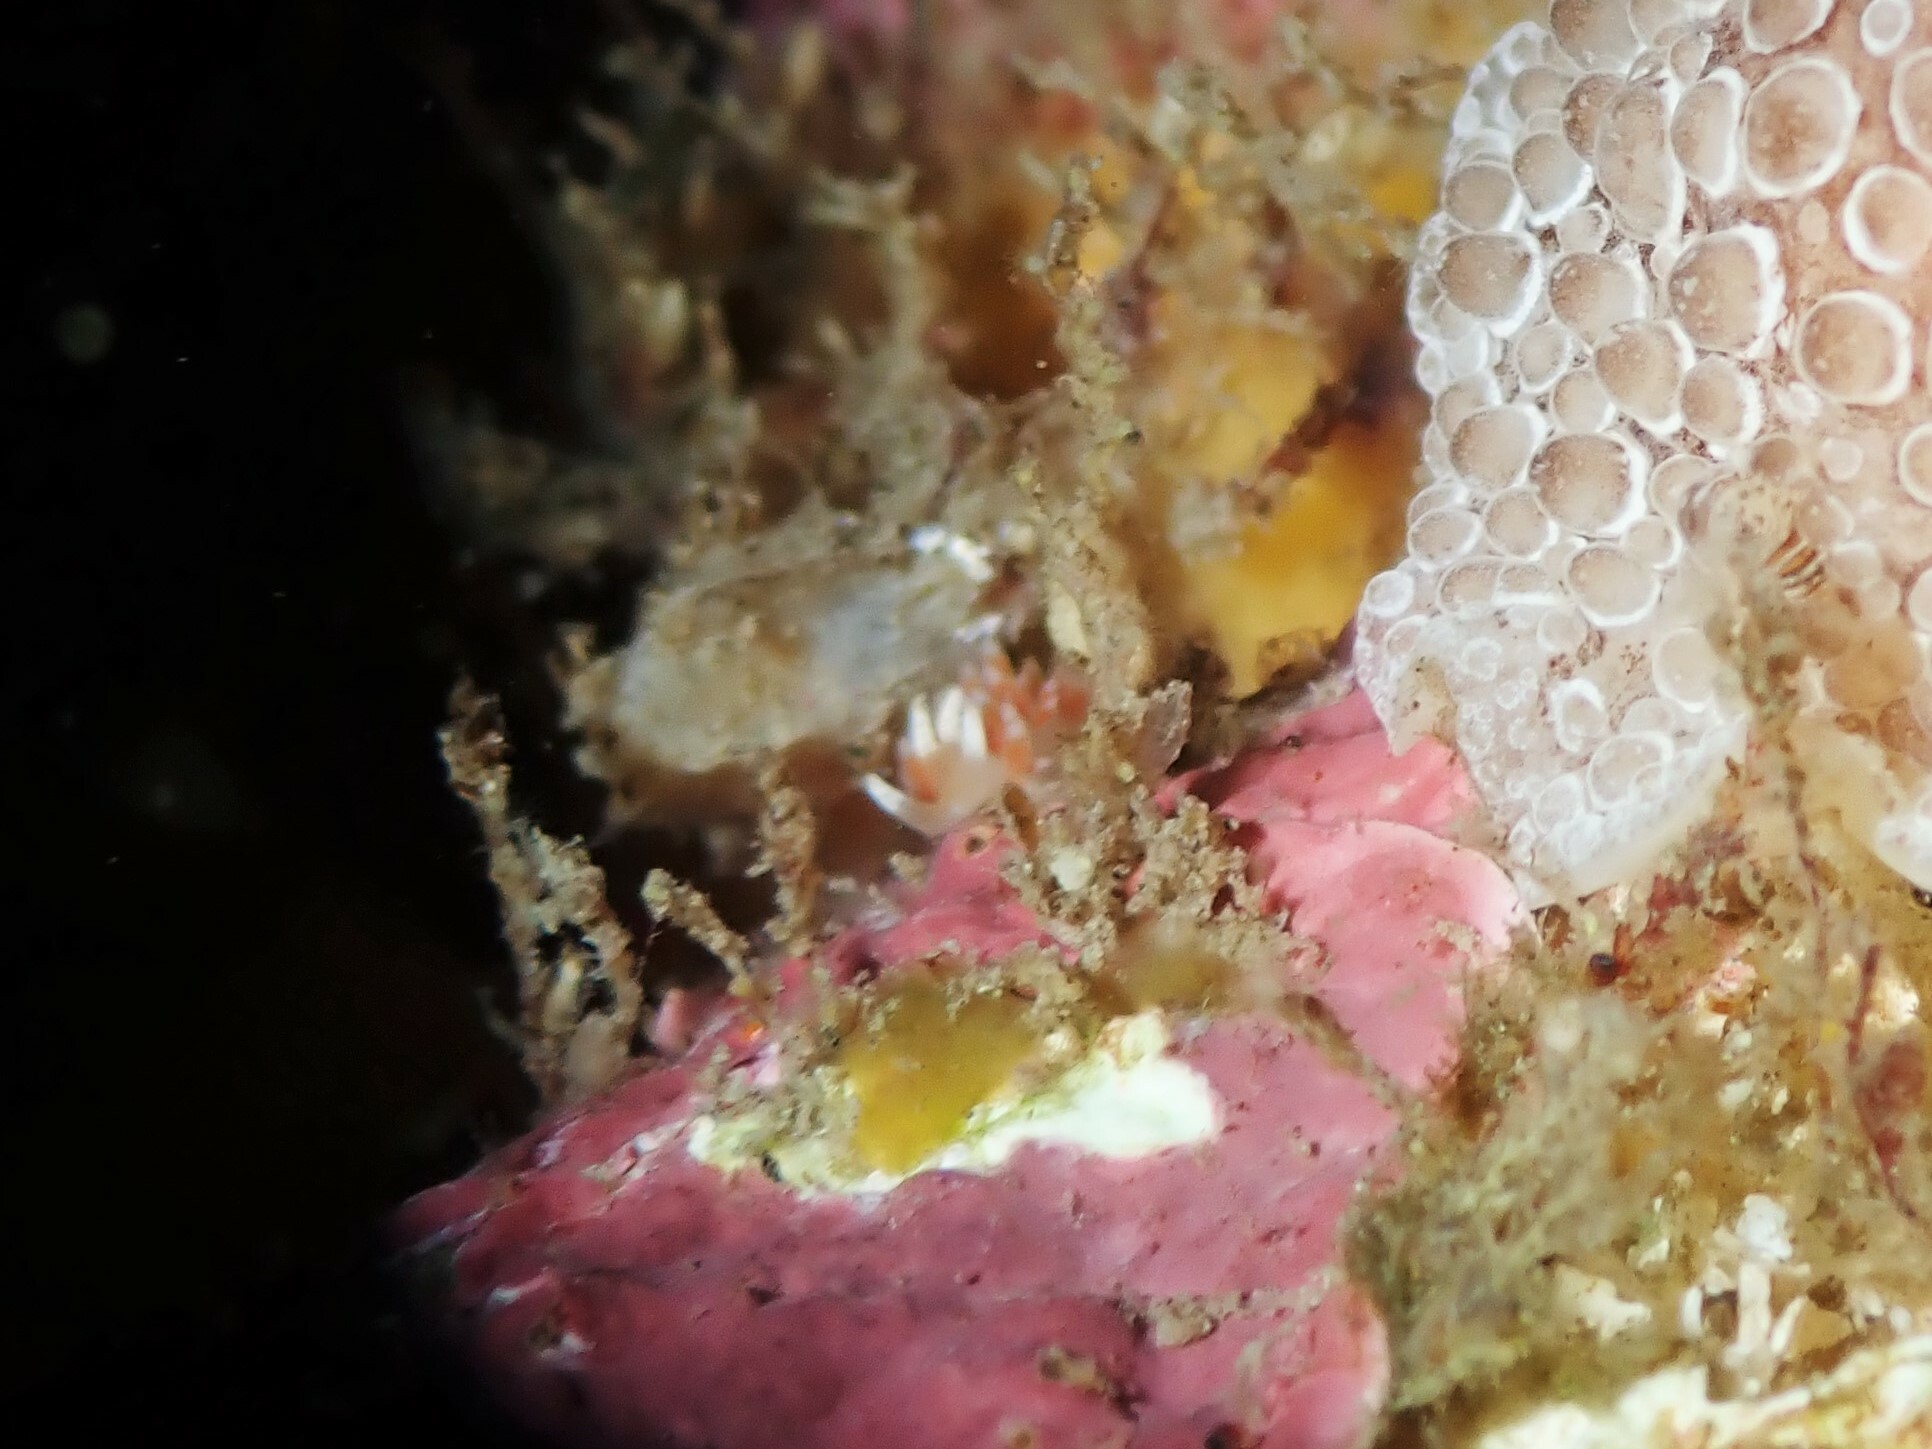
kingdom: Animalia
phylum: Mollusca
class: Gastropoda
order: Nudibranchia
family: Flabellinidae
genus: Coryphellina
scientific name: Coryphellina albomarginata
